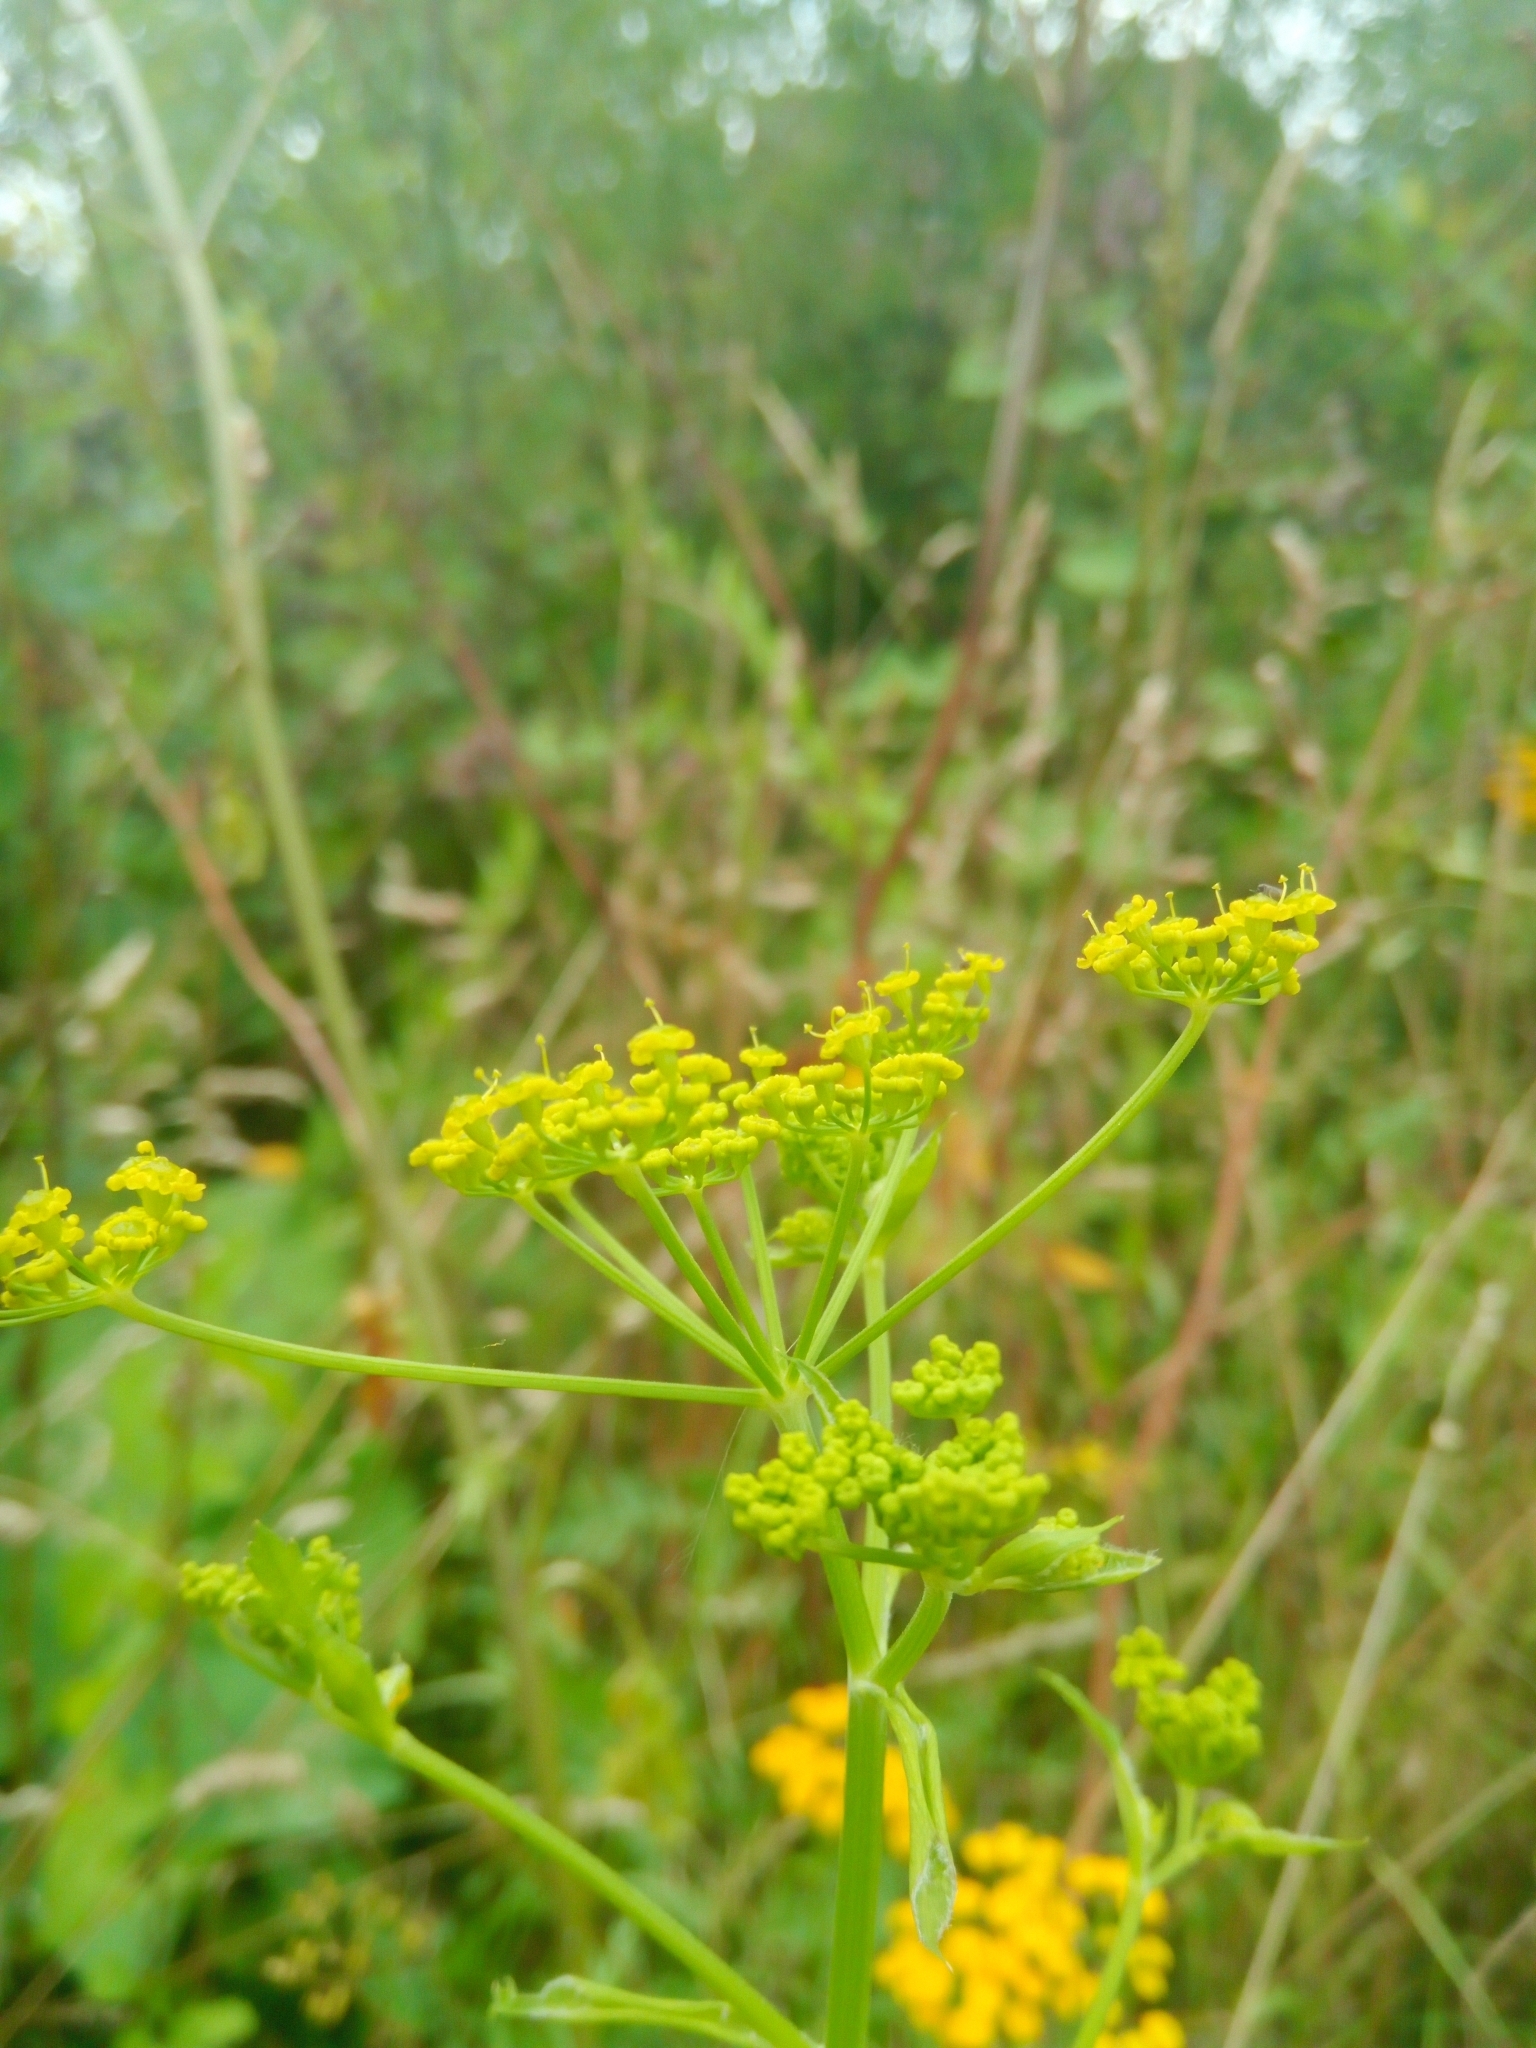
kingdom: Plantae
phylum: Tracheophyta
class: Magnoliopsida
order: Apiales
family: Apiaceae
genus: Pastinaca
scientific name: Pastinaca sativa
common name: Wild parsnip
